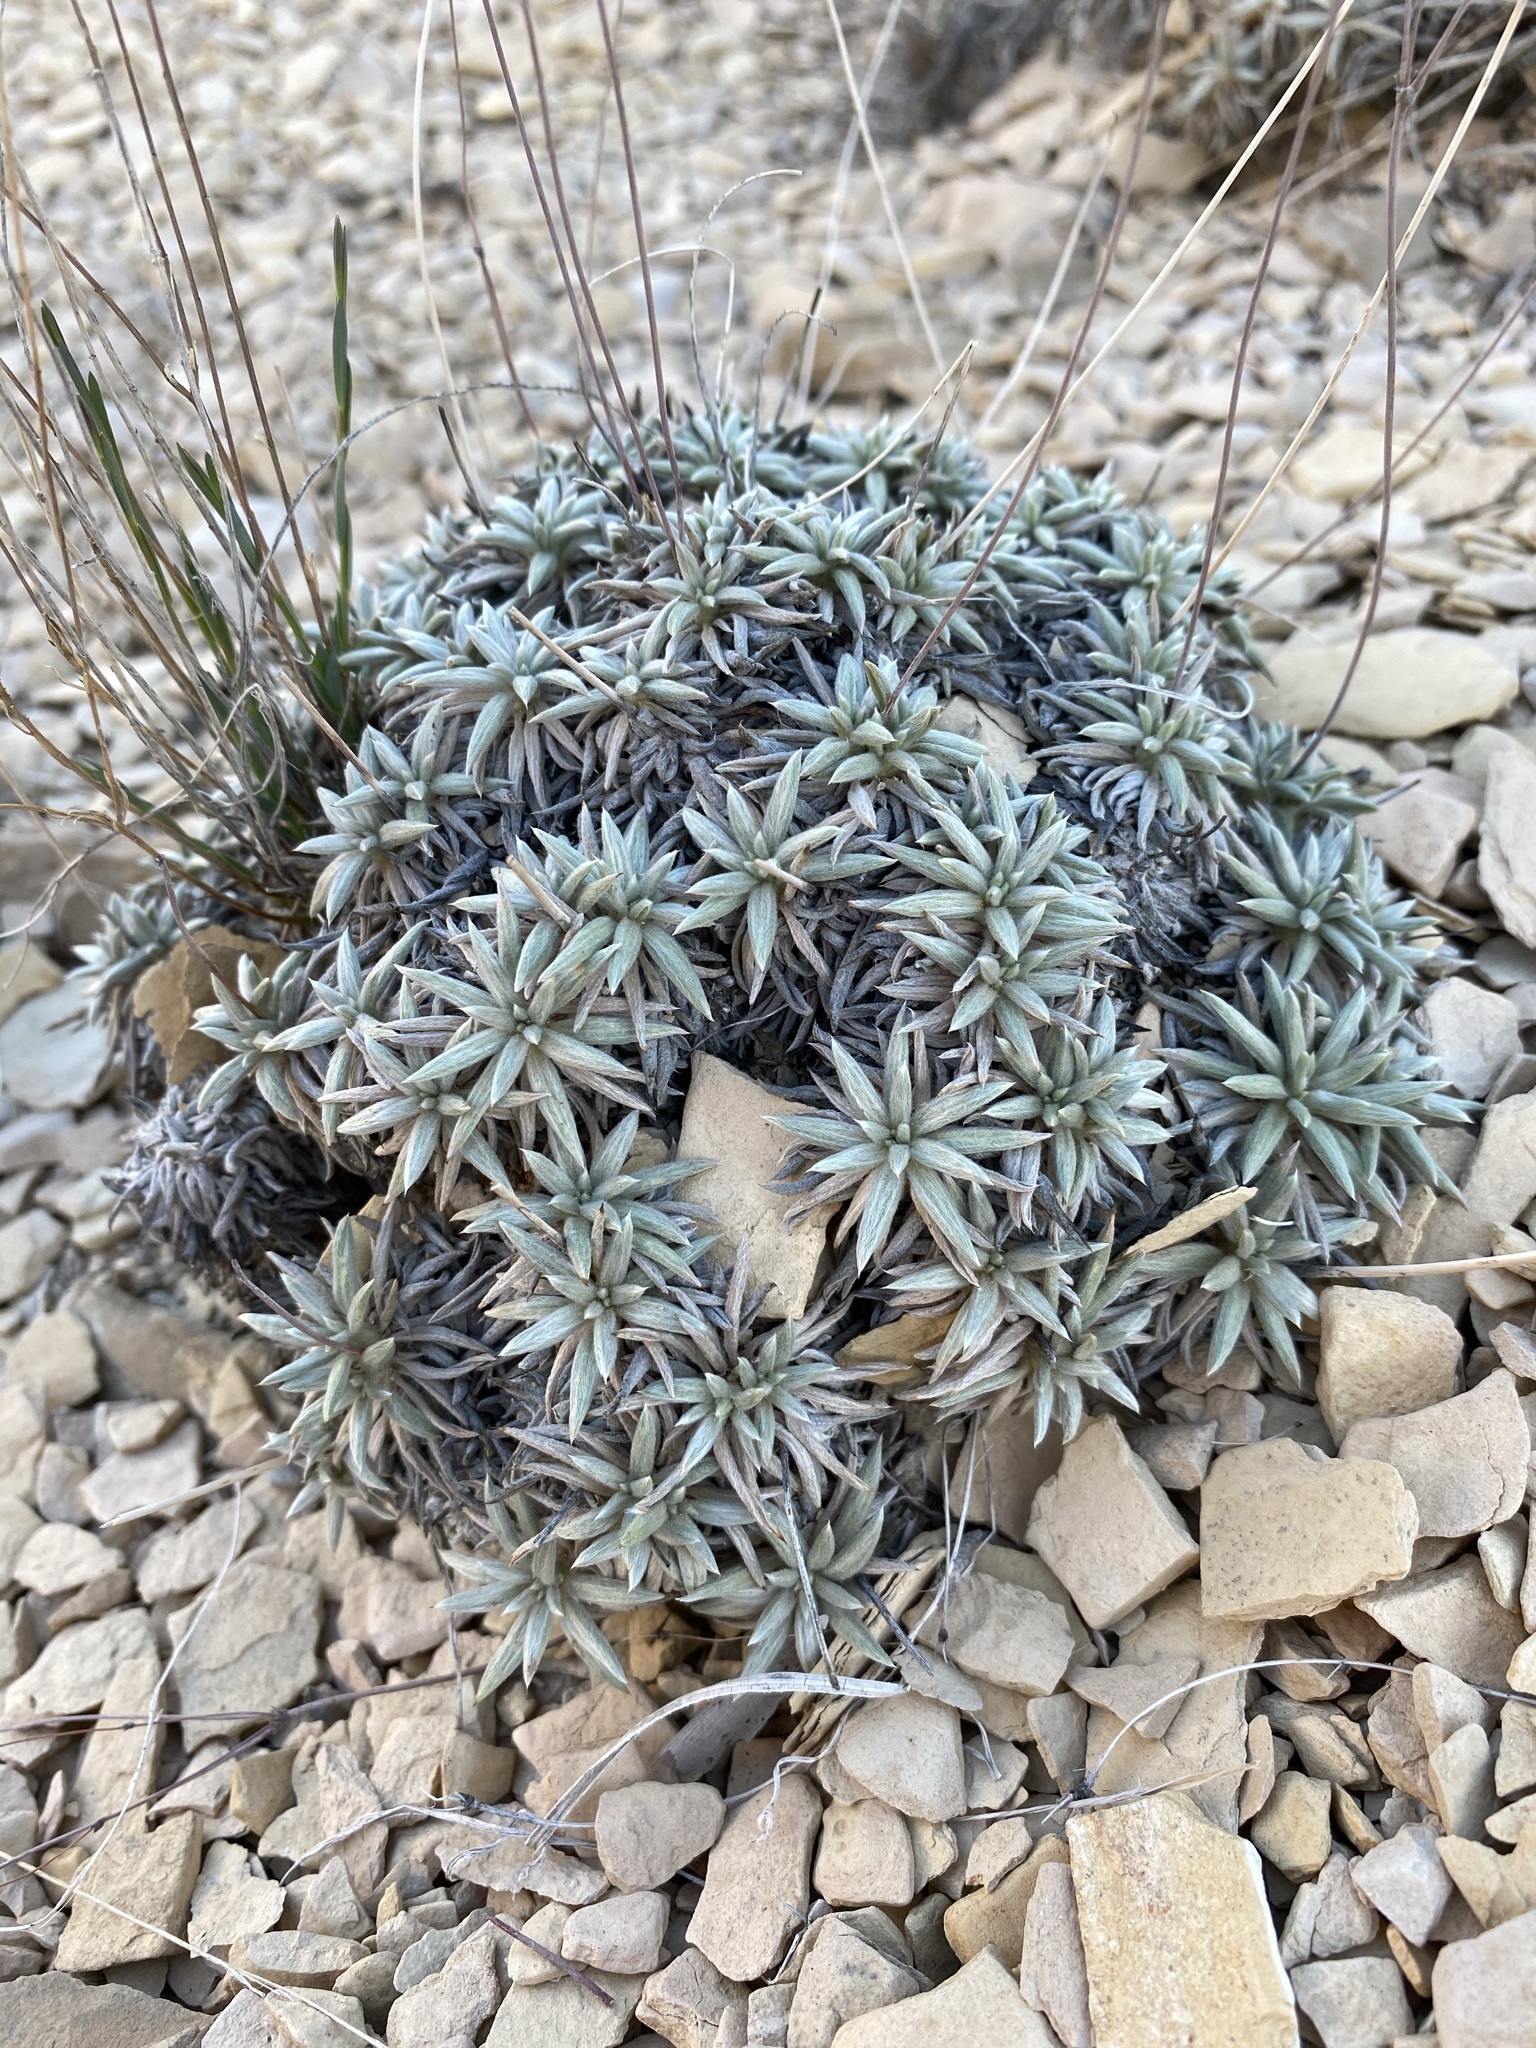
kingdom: Plantae
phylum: Tracheophyta
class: Magnoliopsida
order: Caryophyllales
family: Polygonaceae
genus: Eriogonum
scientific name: Eriogonum havardii
